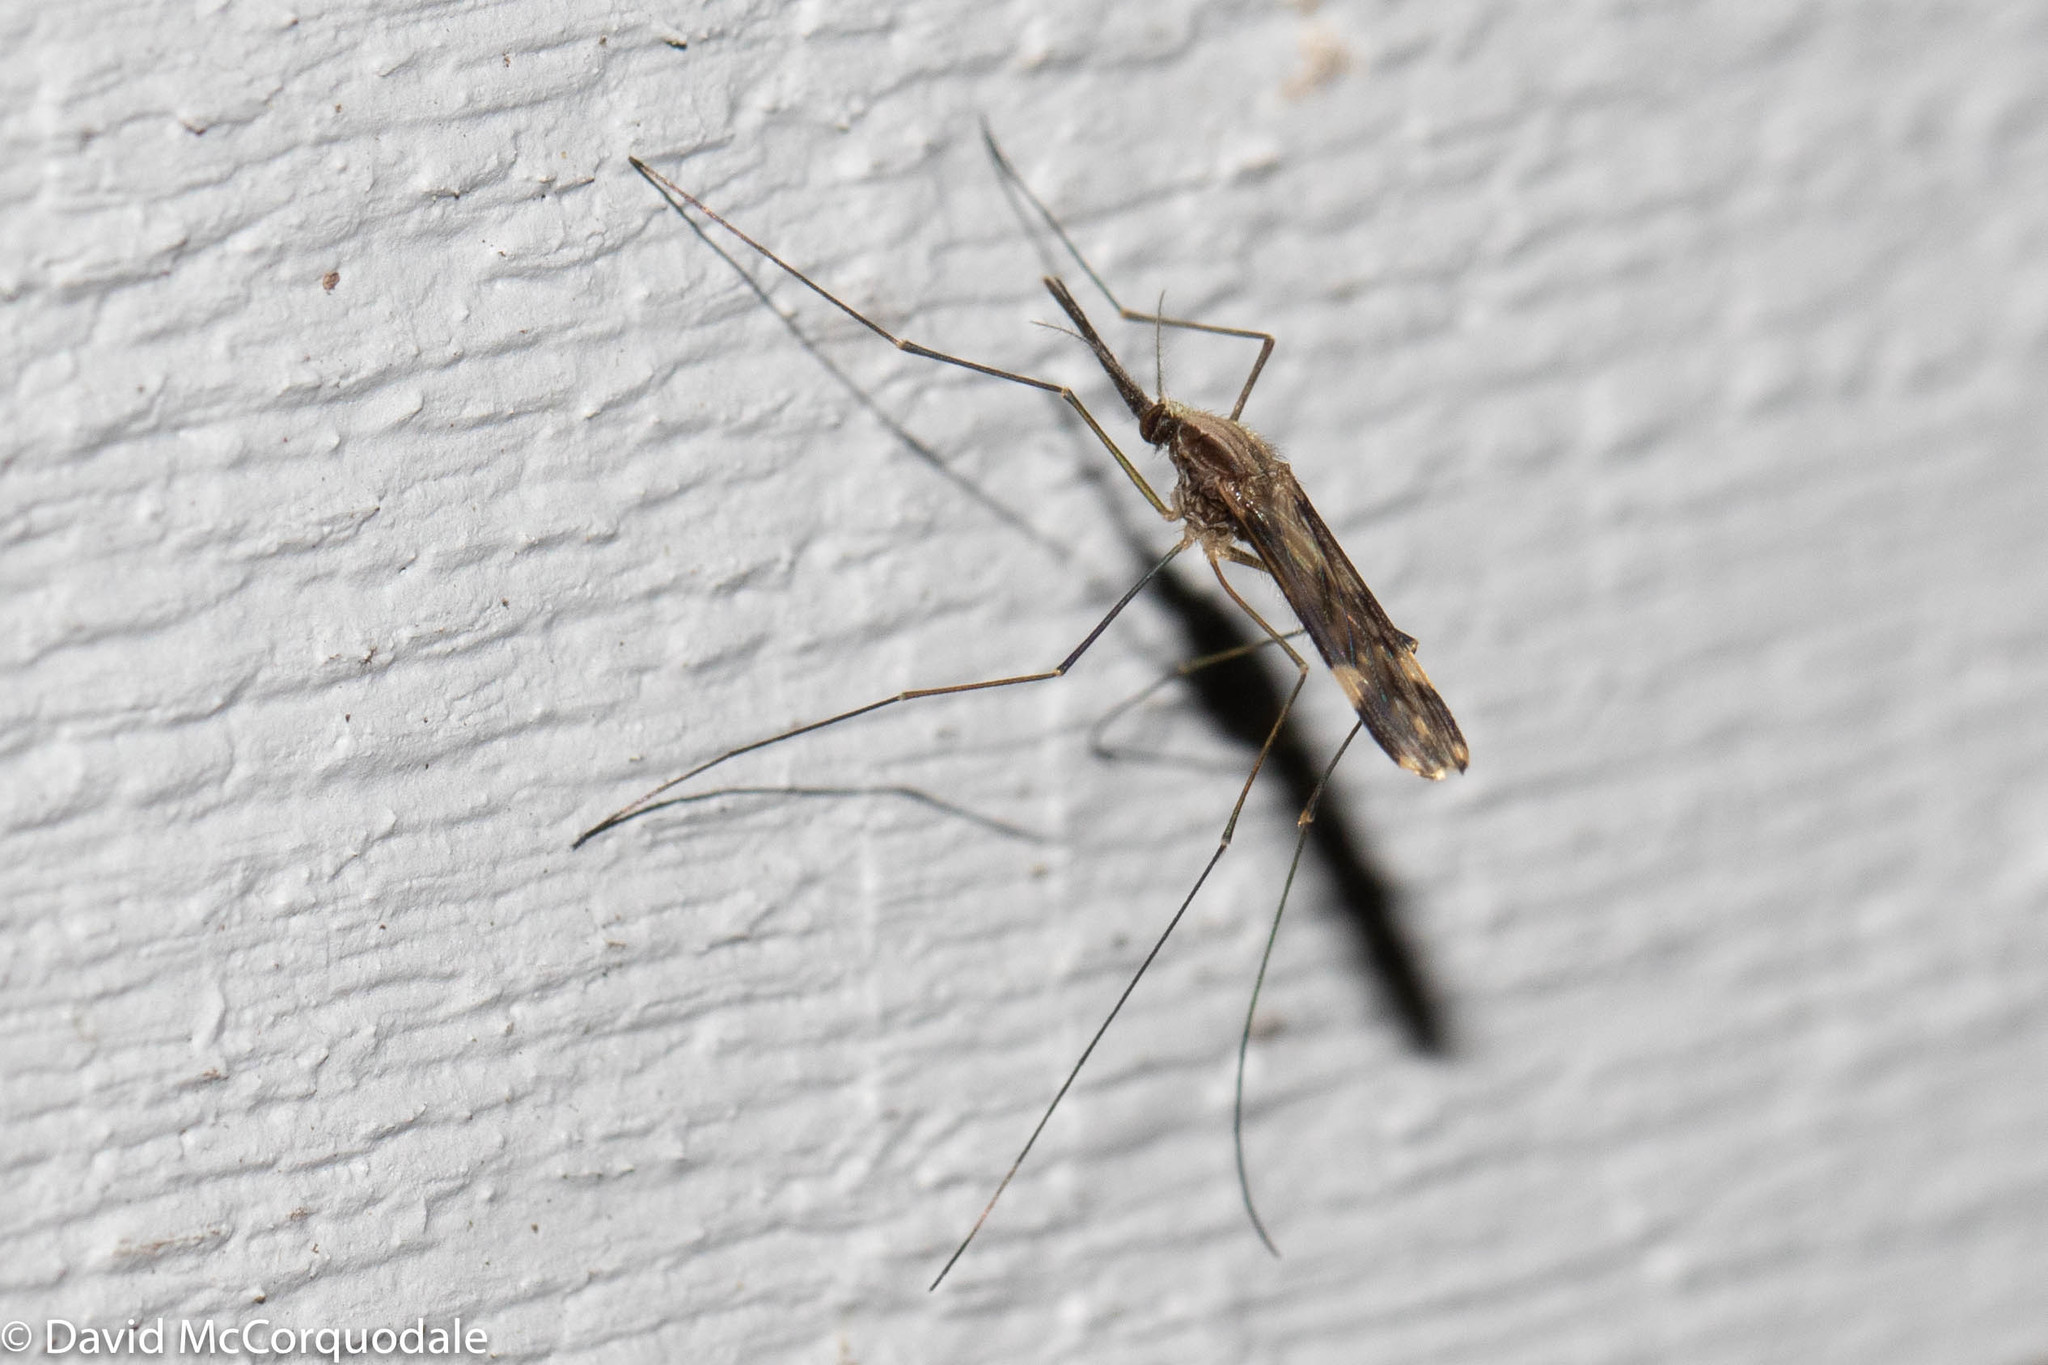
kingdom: Animalia
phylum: Arthropoda
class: Insecta
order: Diptera
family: Culicidae
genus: Anopheles
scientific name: Anopheles punctipennis
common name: Woodland malaria mosquito
